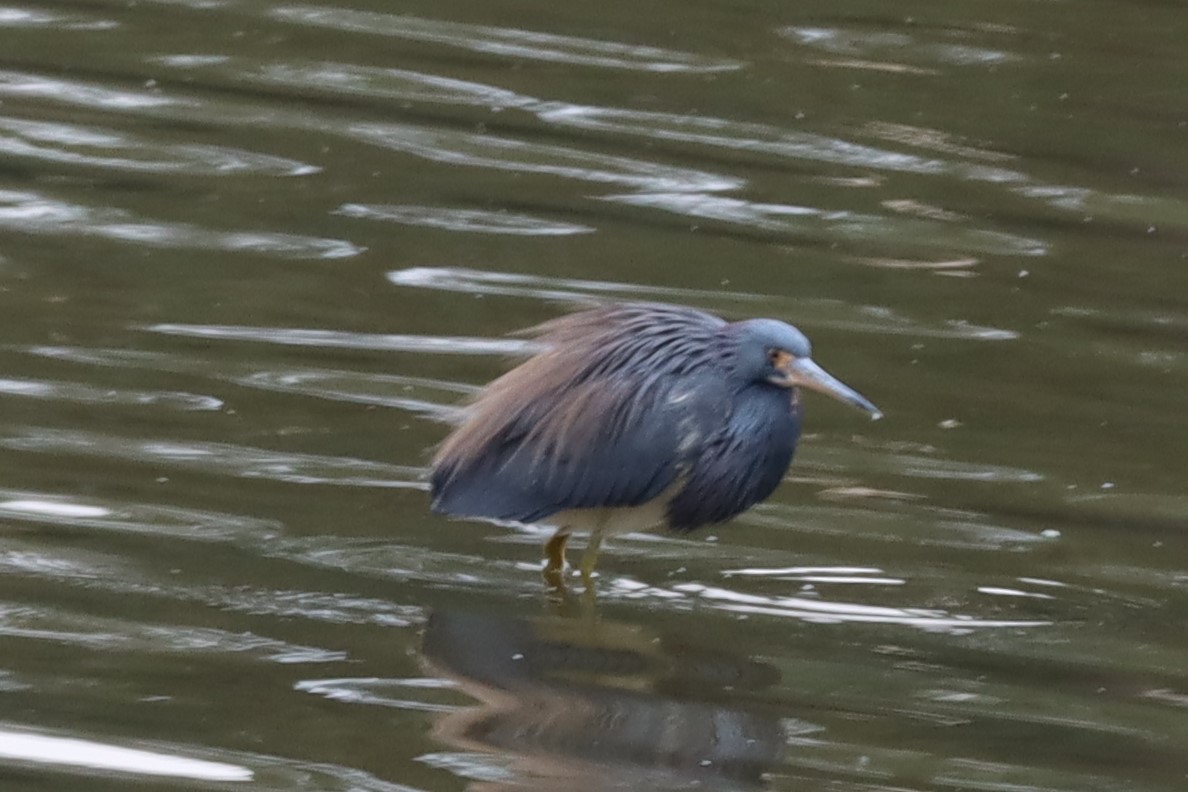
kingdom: Animalia
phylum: Chordata
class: Aves
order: Pelecaniformes
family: Ardeidae
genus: Egretta
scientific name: Egretta tricolor
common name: Tricolored heron
